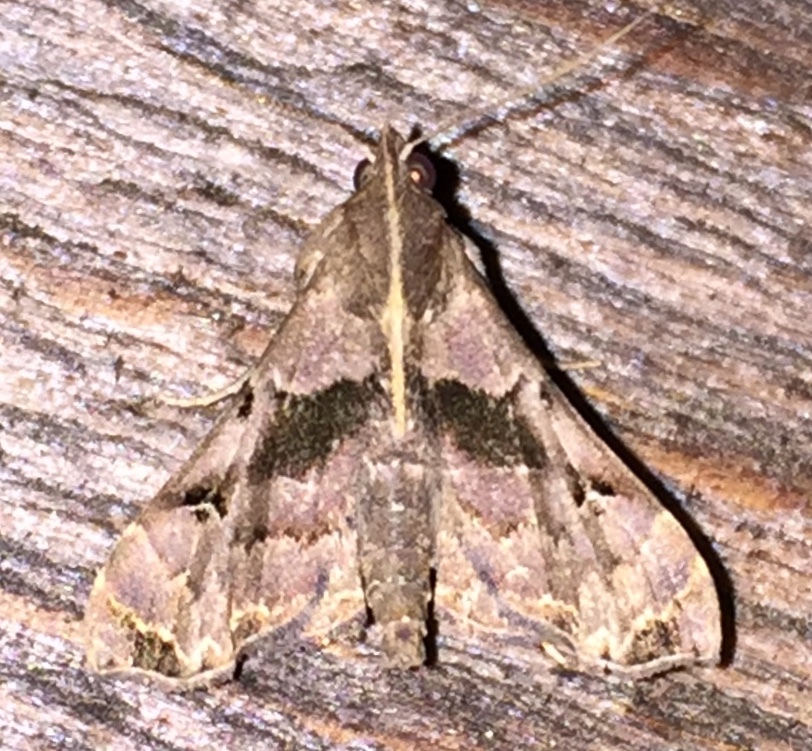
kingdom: Animalia
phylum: Arthropoda
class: Insecta
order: Lepidoptera
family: Erebidae
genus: Palthis
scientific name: Palthis asopialis
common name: Faint-spotted palthis moth
